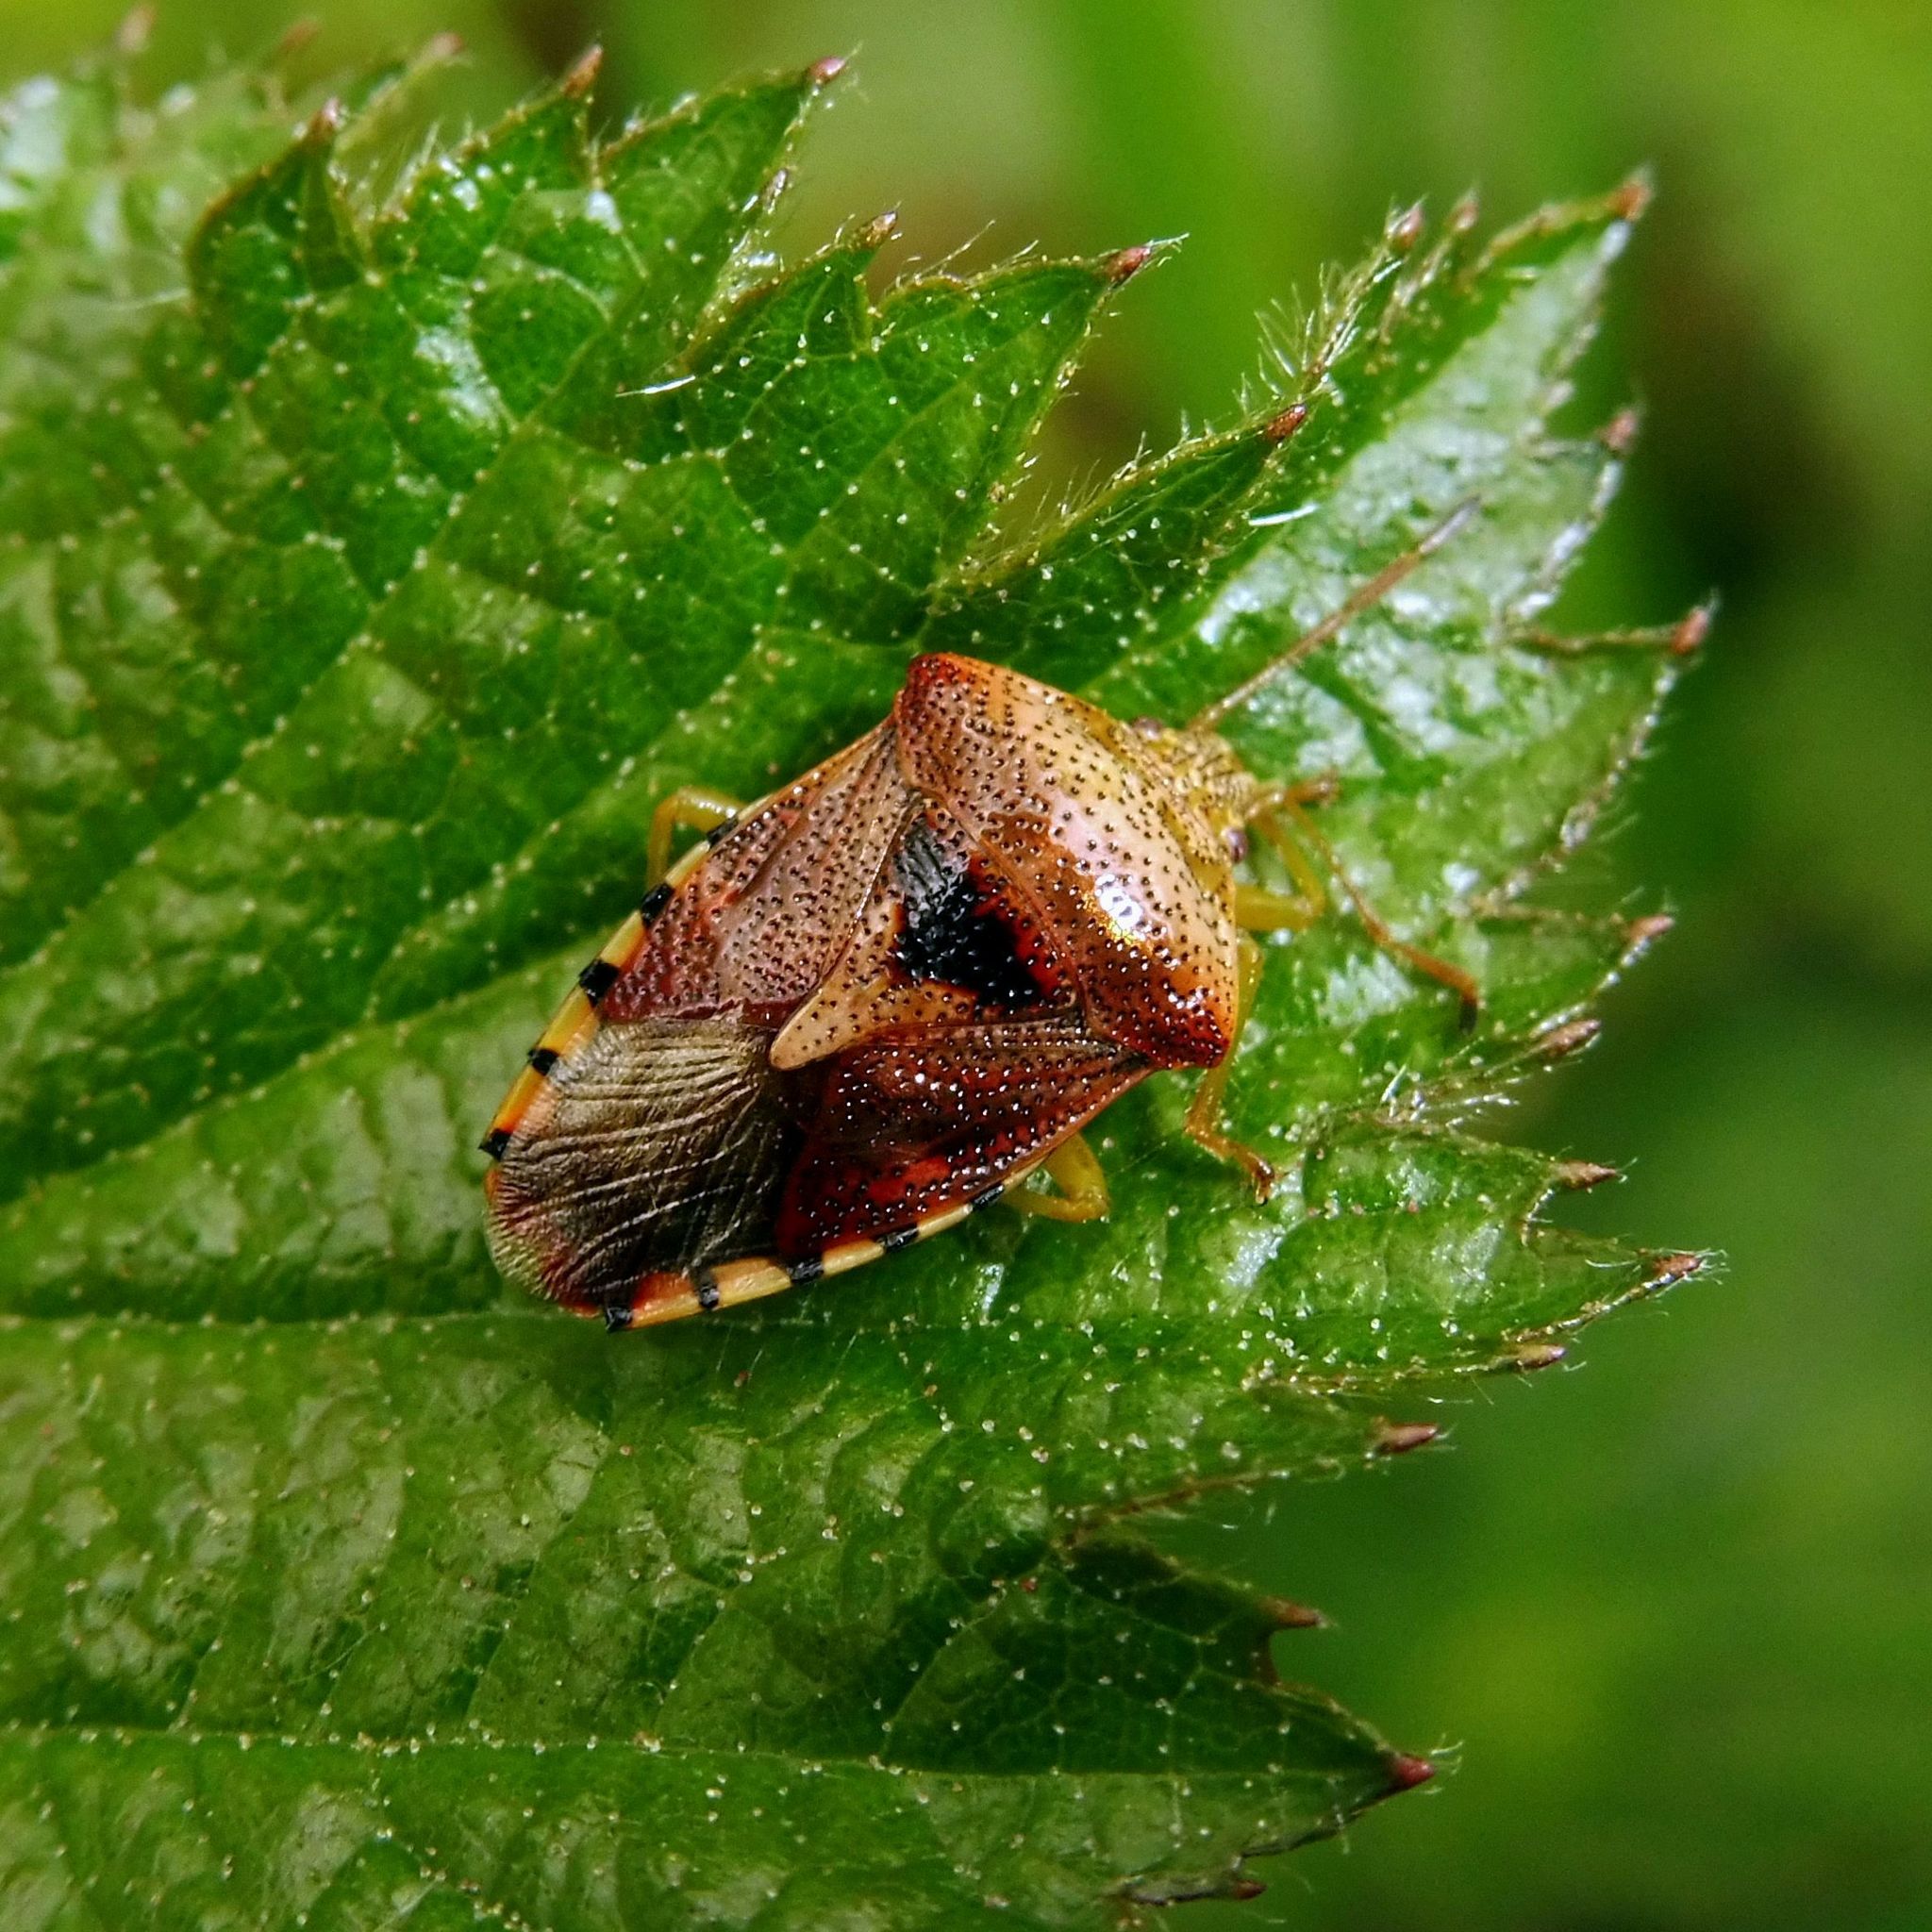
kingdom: Animalia
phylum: Arthropoda
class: Insecta
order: Hemiptera
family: Acanthosomatidae
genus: Elasmucha
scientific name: Elasmucha grisea
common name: Parent bug
